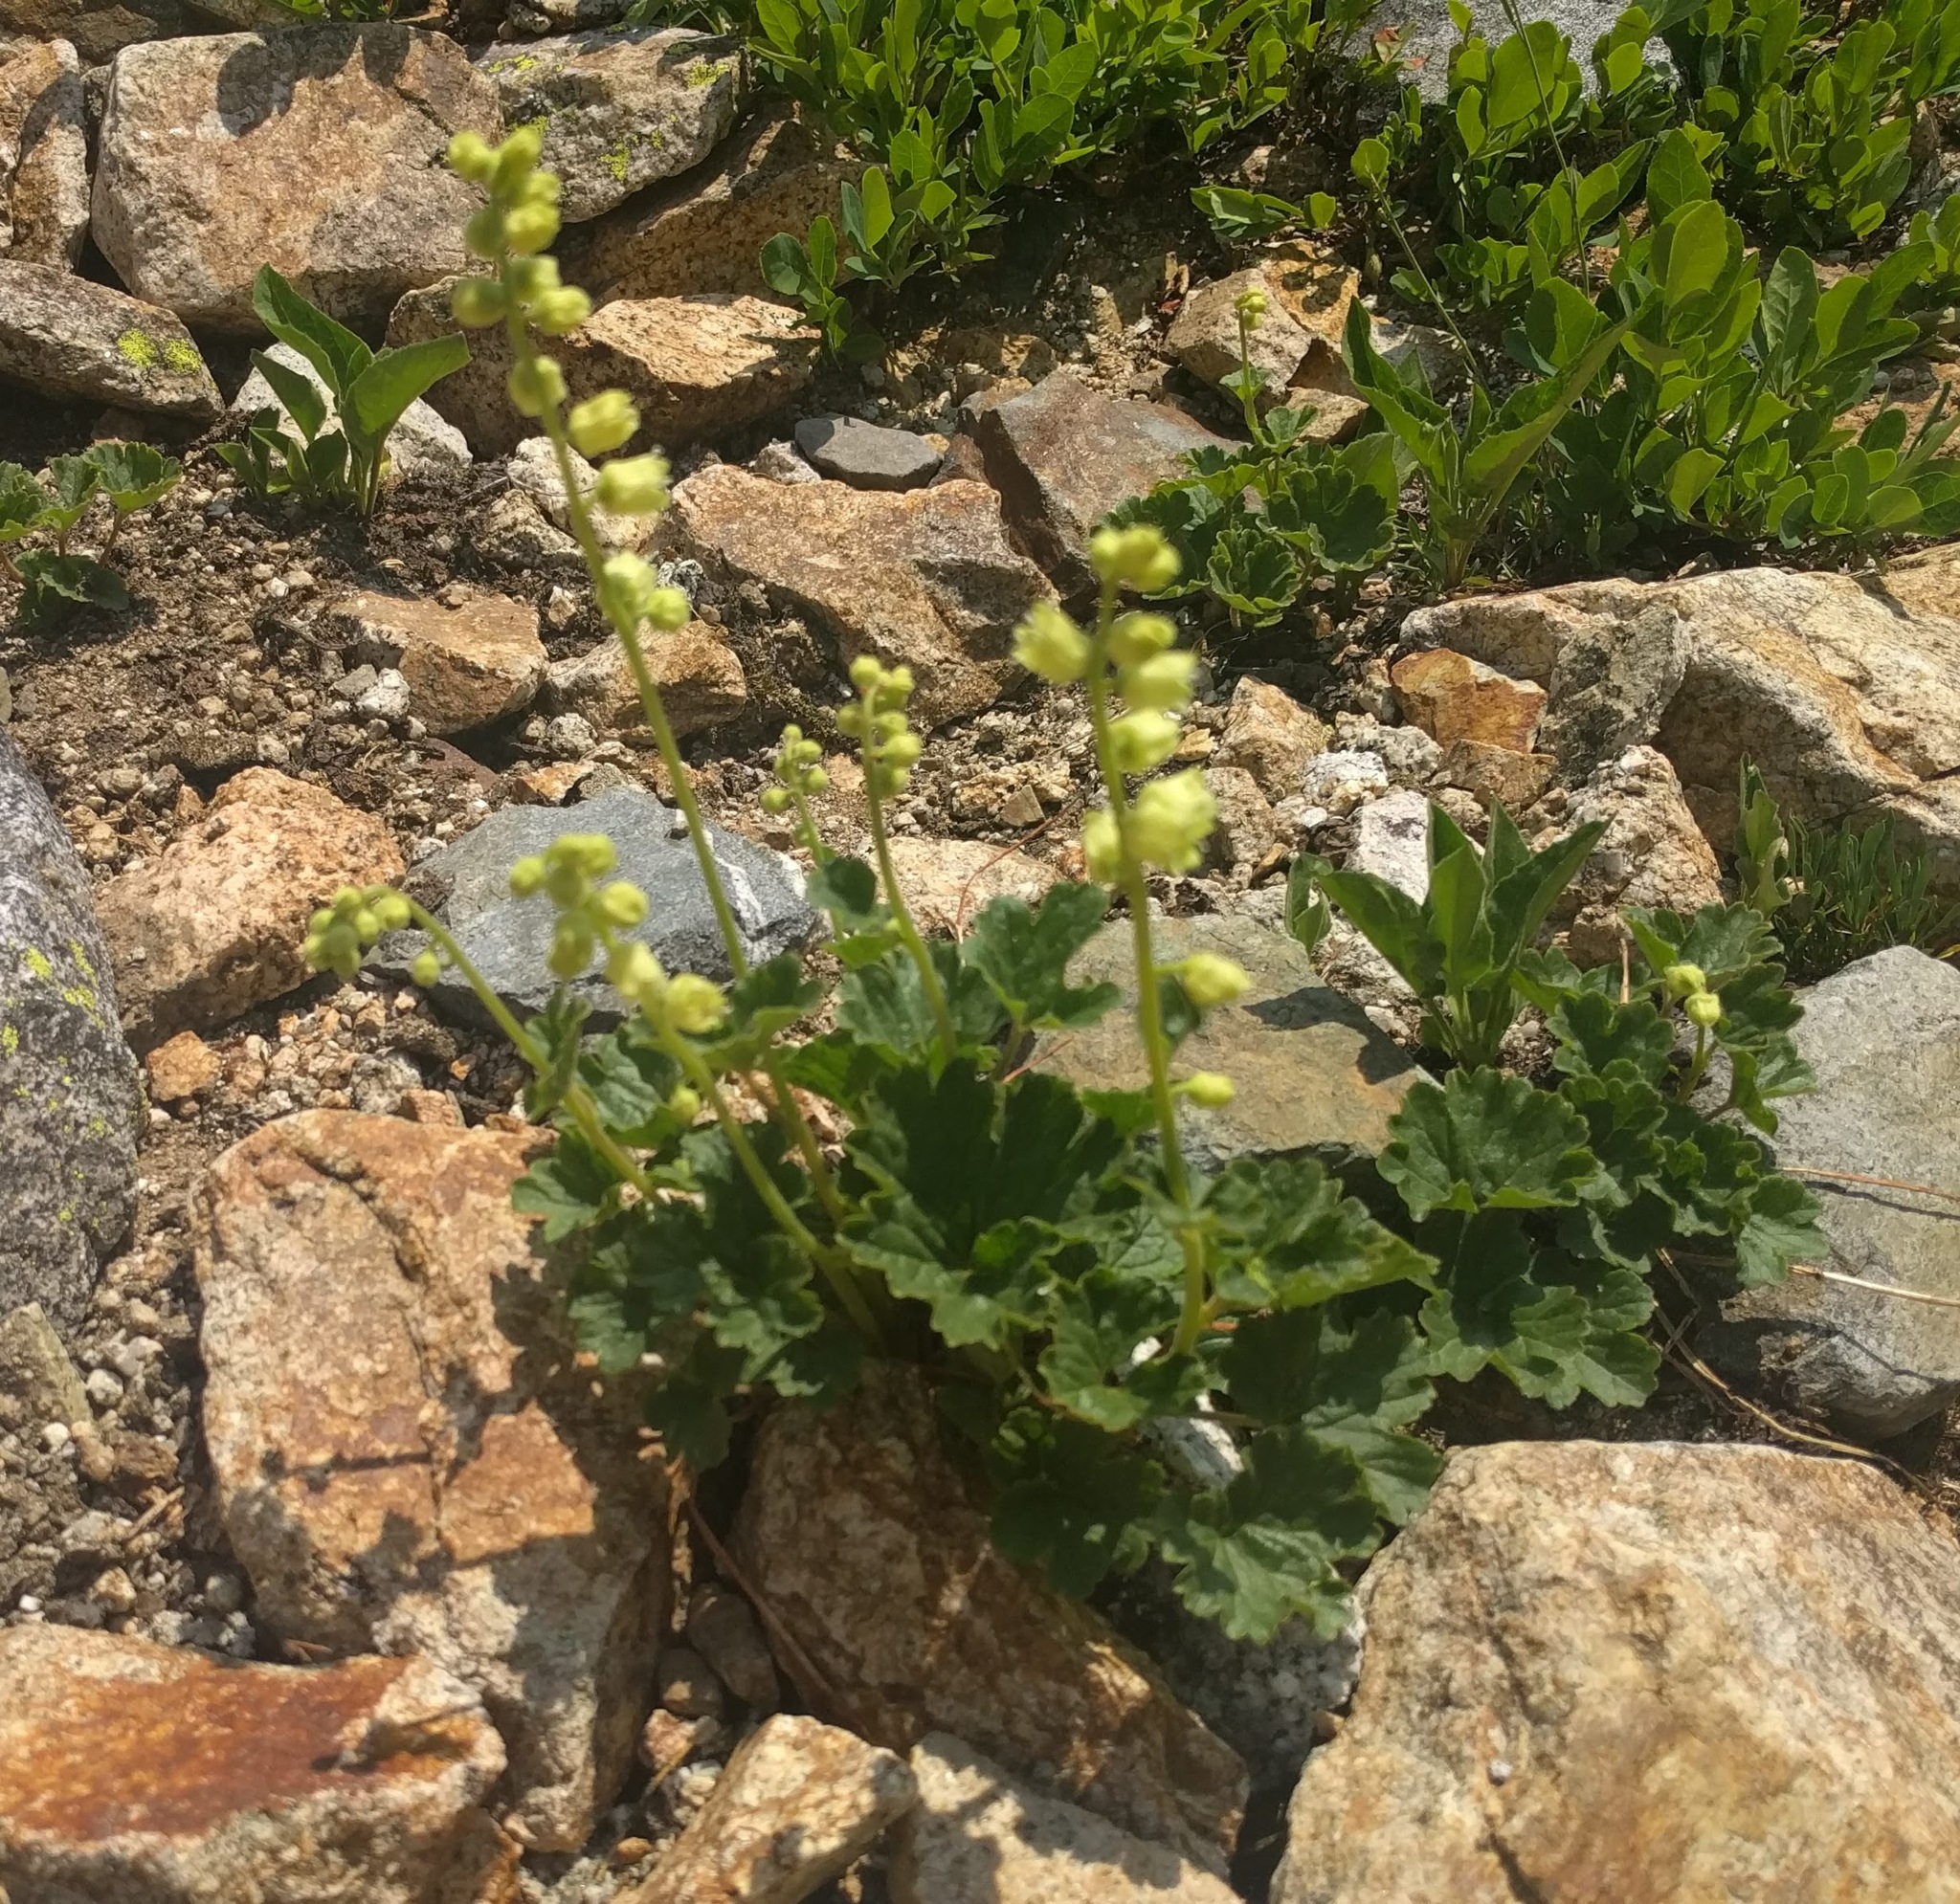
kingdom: Plantae
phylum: Tracheophyta
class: Magnoliopsida
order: Saxifragales
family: Saxifragaceae
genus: Elmera
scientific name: Elmera racemosa
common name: Elmera
